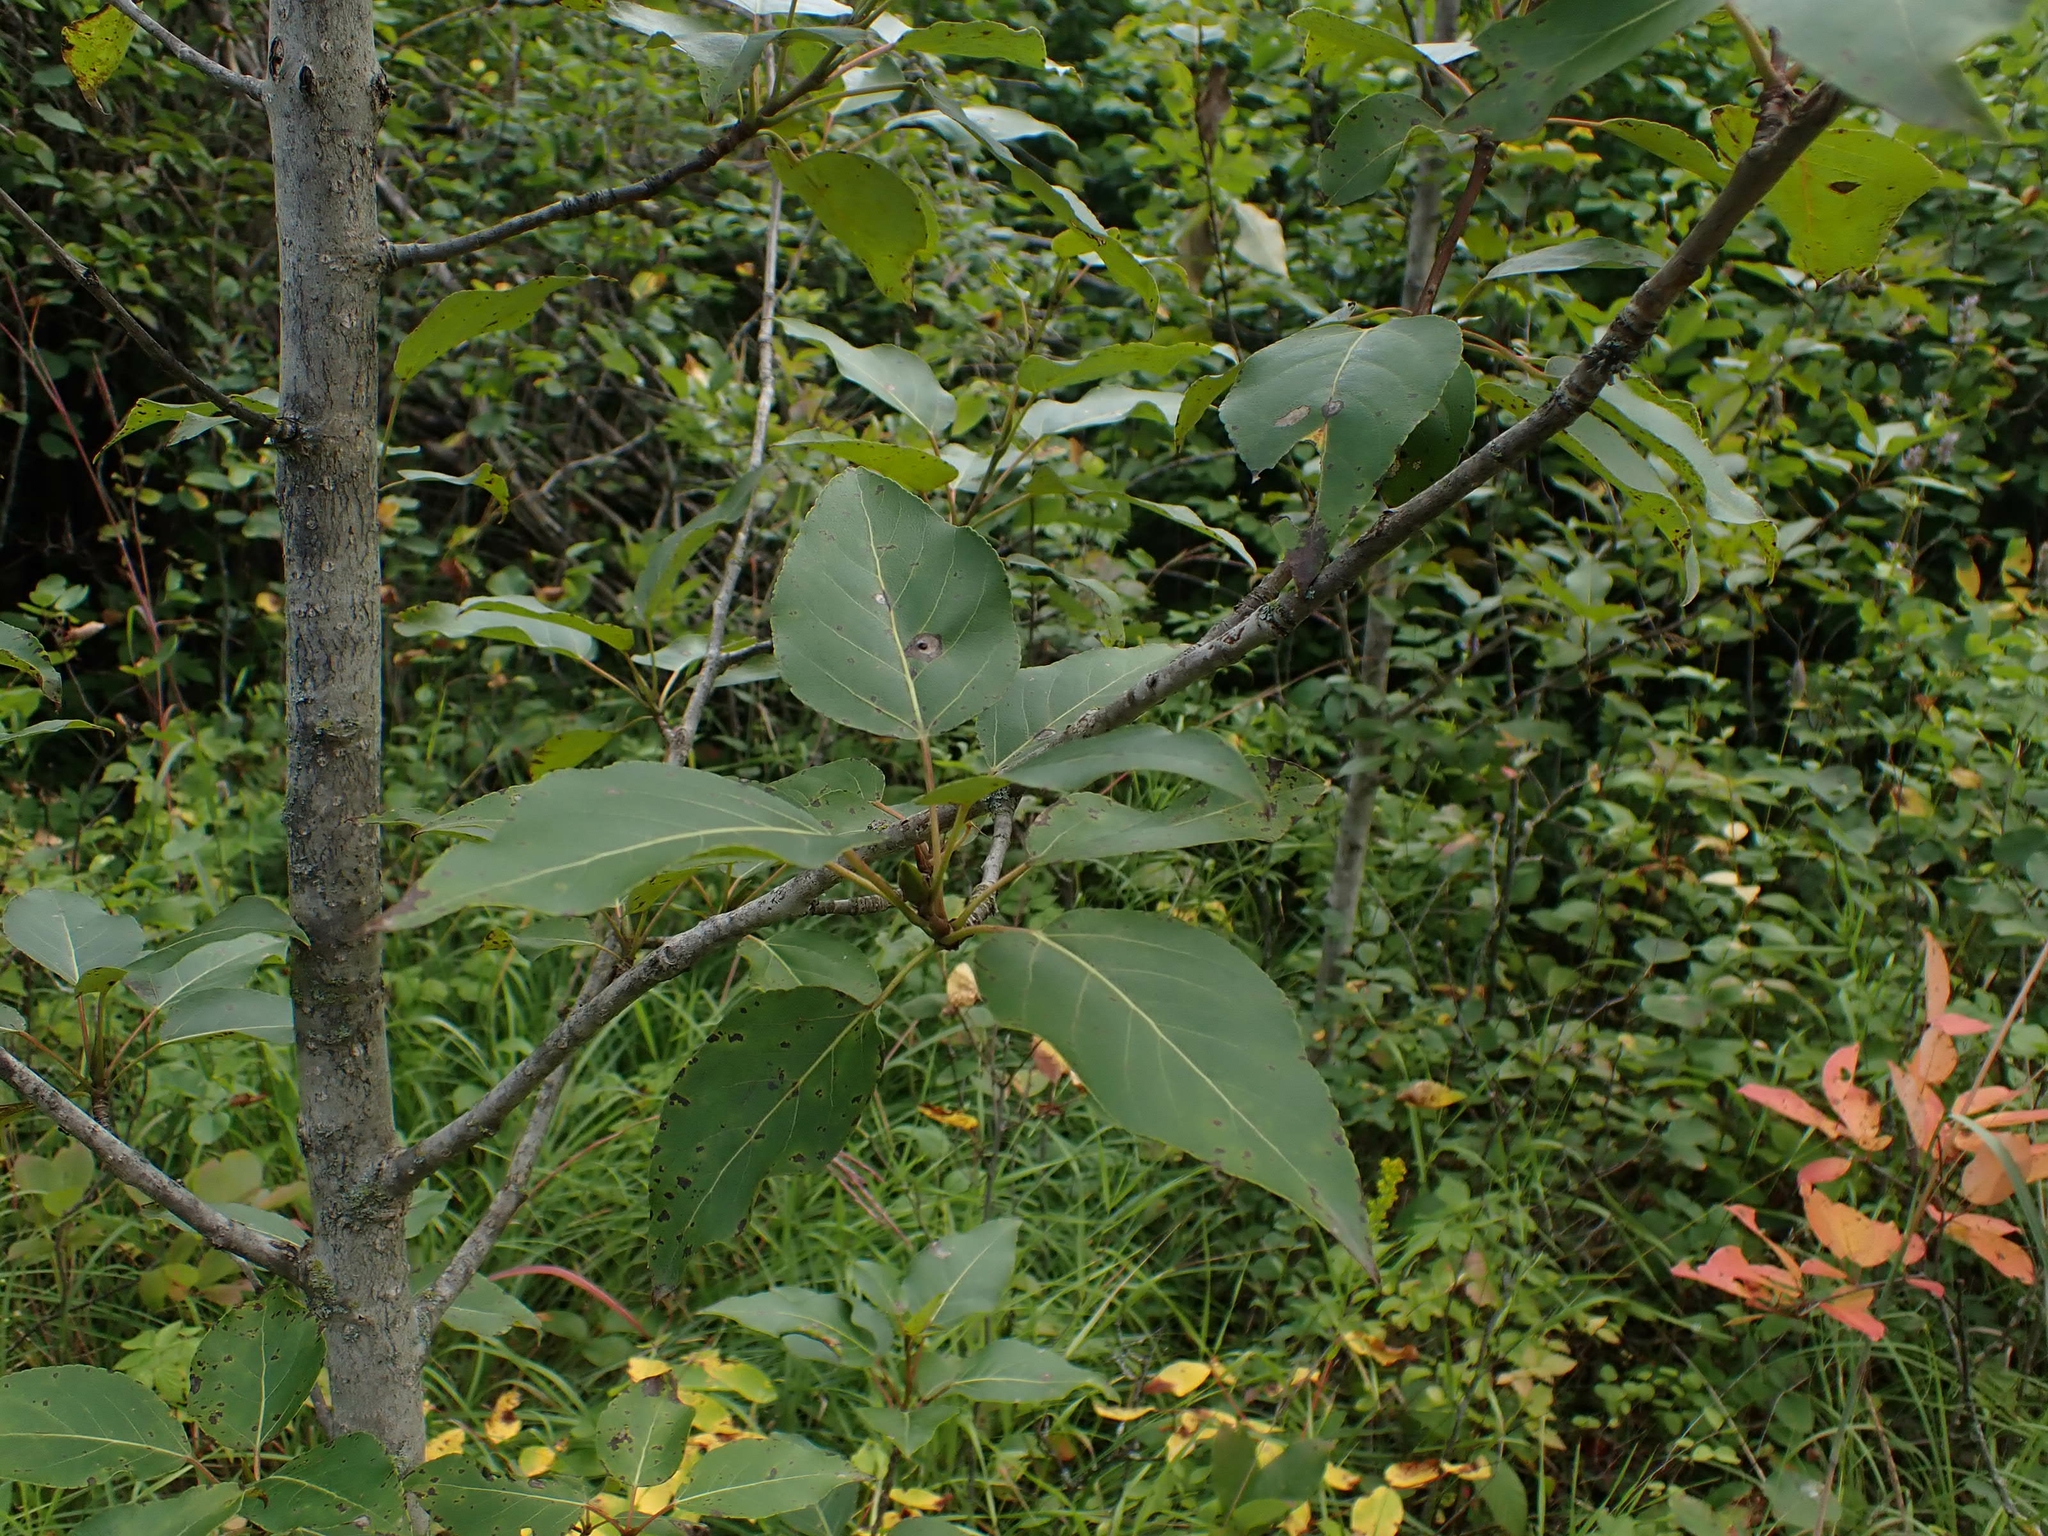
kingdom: Plantae
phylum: Tracheophyta
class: Magnoliopsida
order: Malpighiales
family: Salicaceae
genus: Populus
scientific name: Populus balsamifera
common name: Balsam poplar
